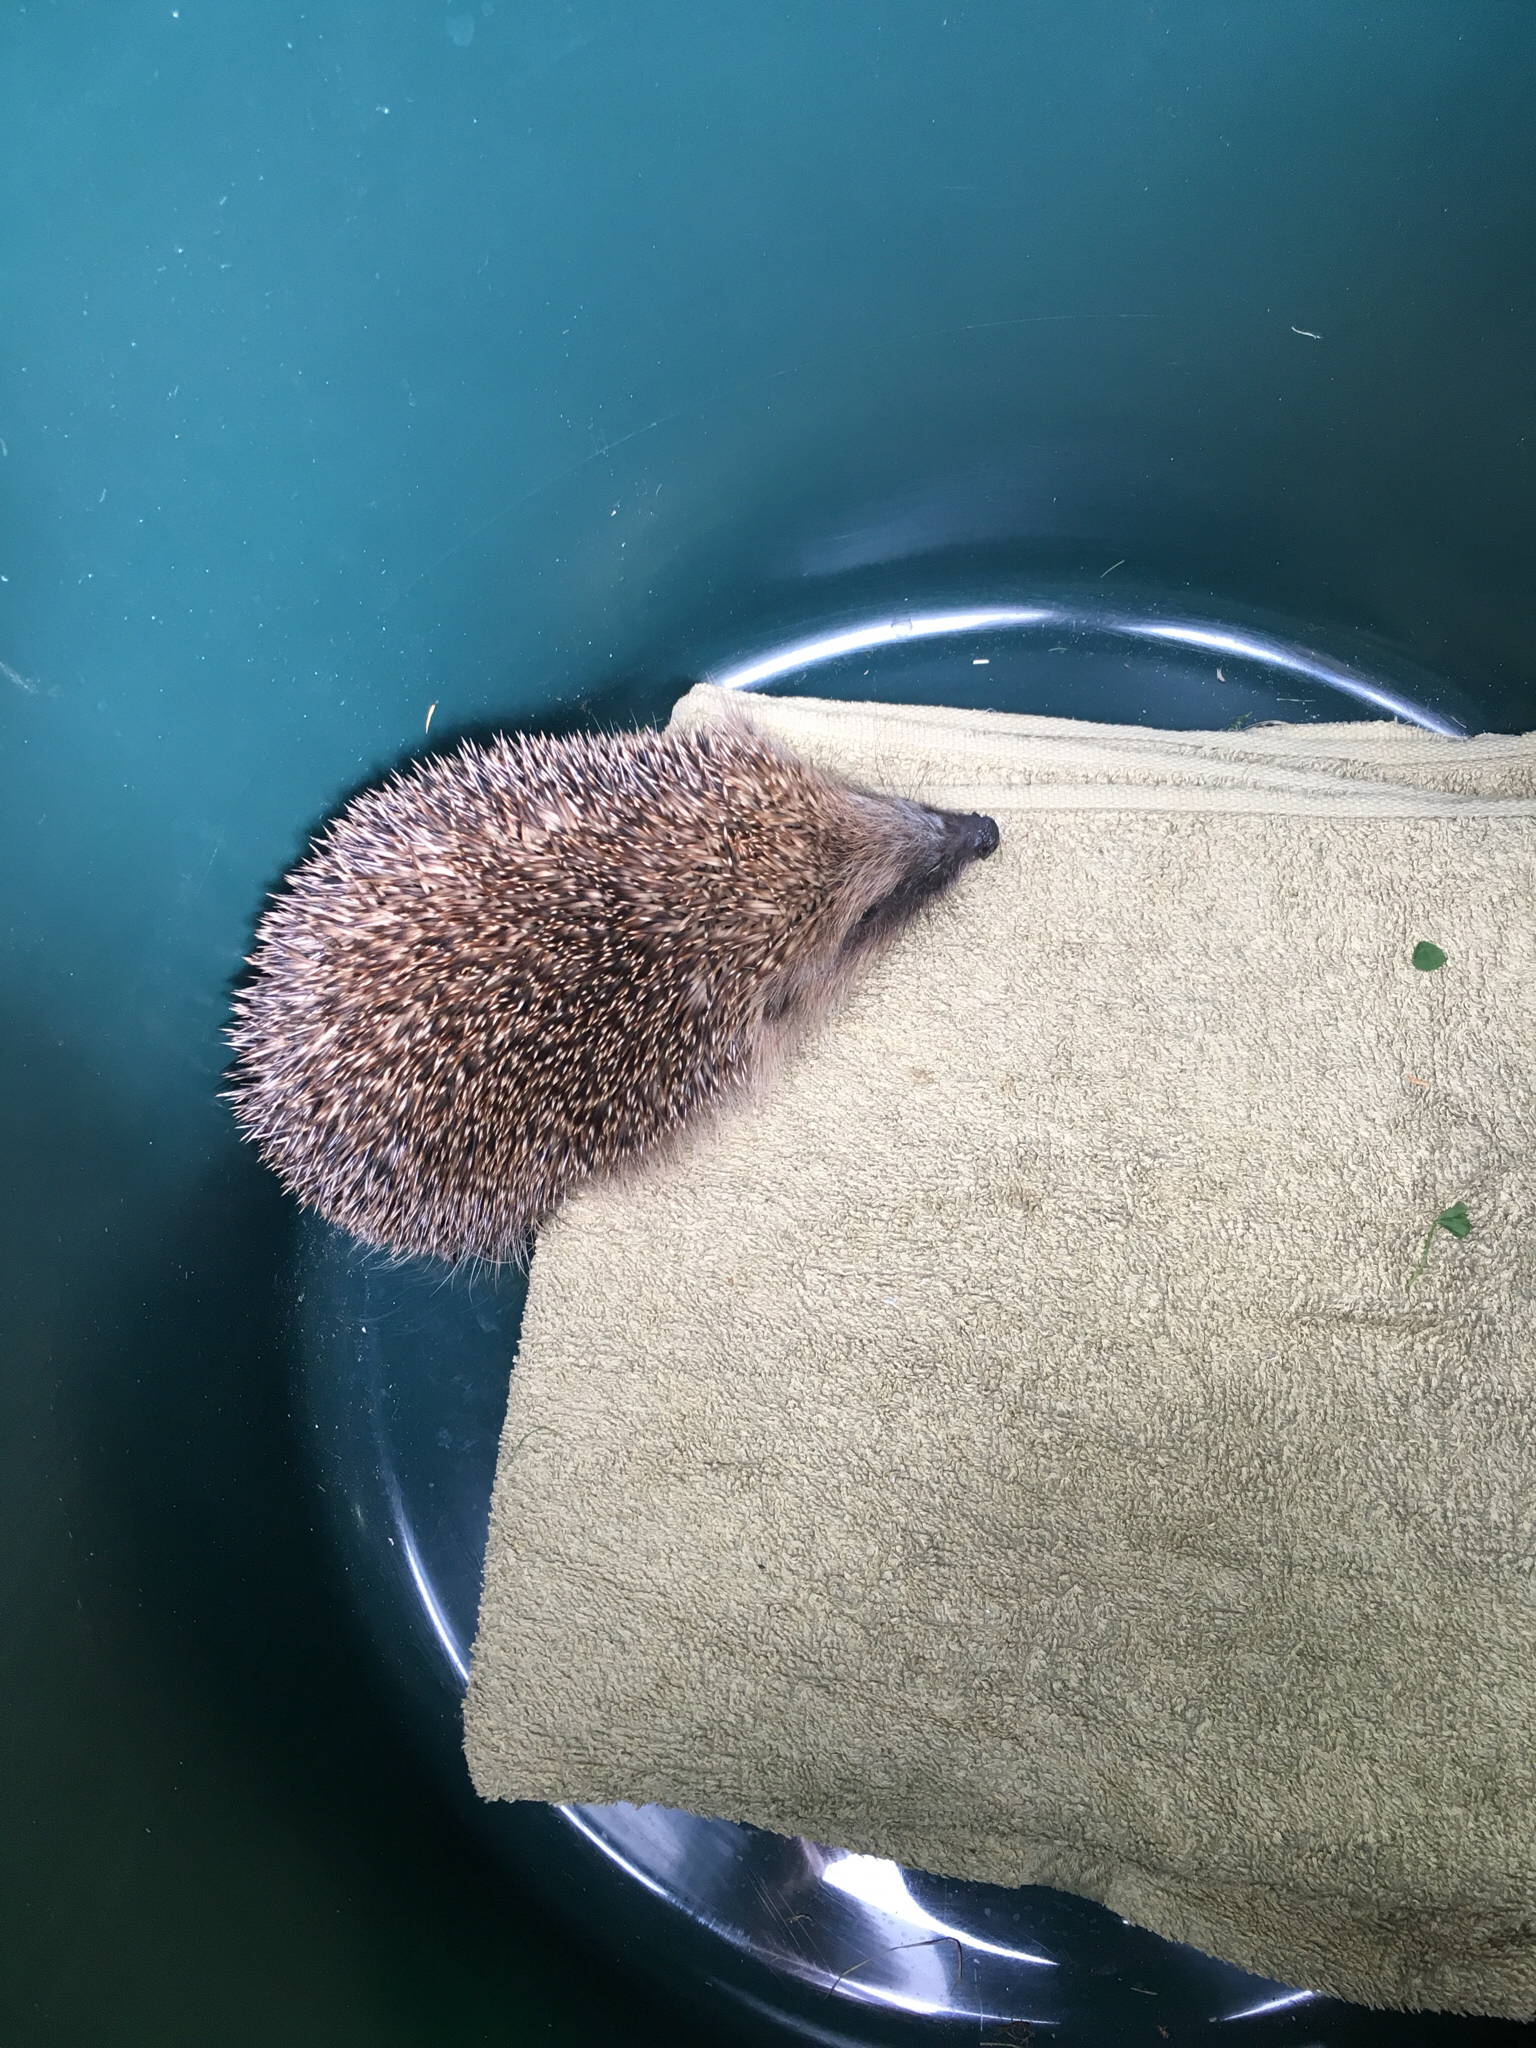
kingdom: Animalia
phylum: Chordata
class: Mammalia
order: Erinaceomorpha
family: Erinaceidae
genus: Erinaceus
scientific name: Erinaceus europaeus
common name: West european hedgehog
